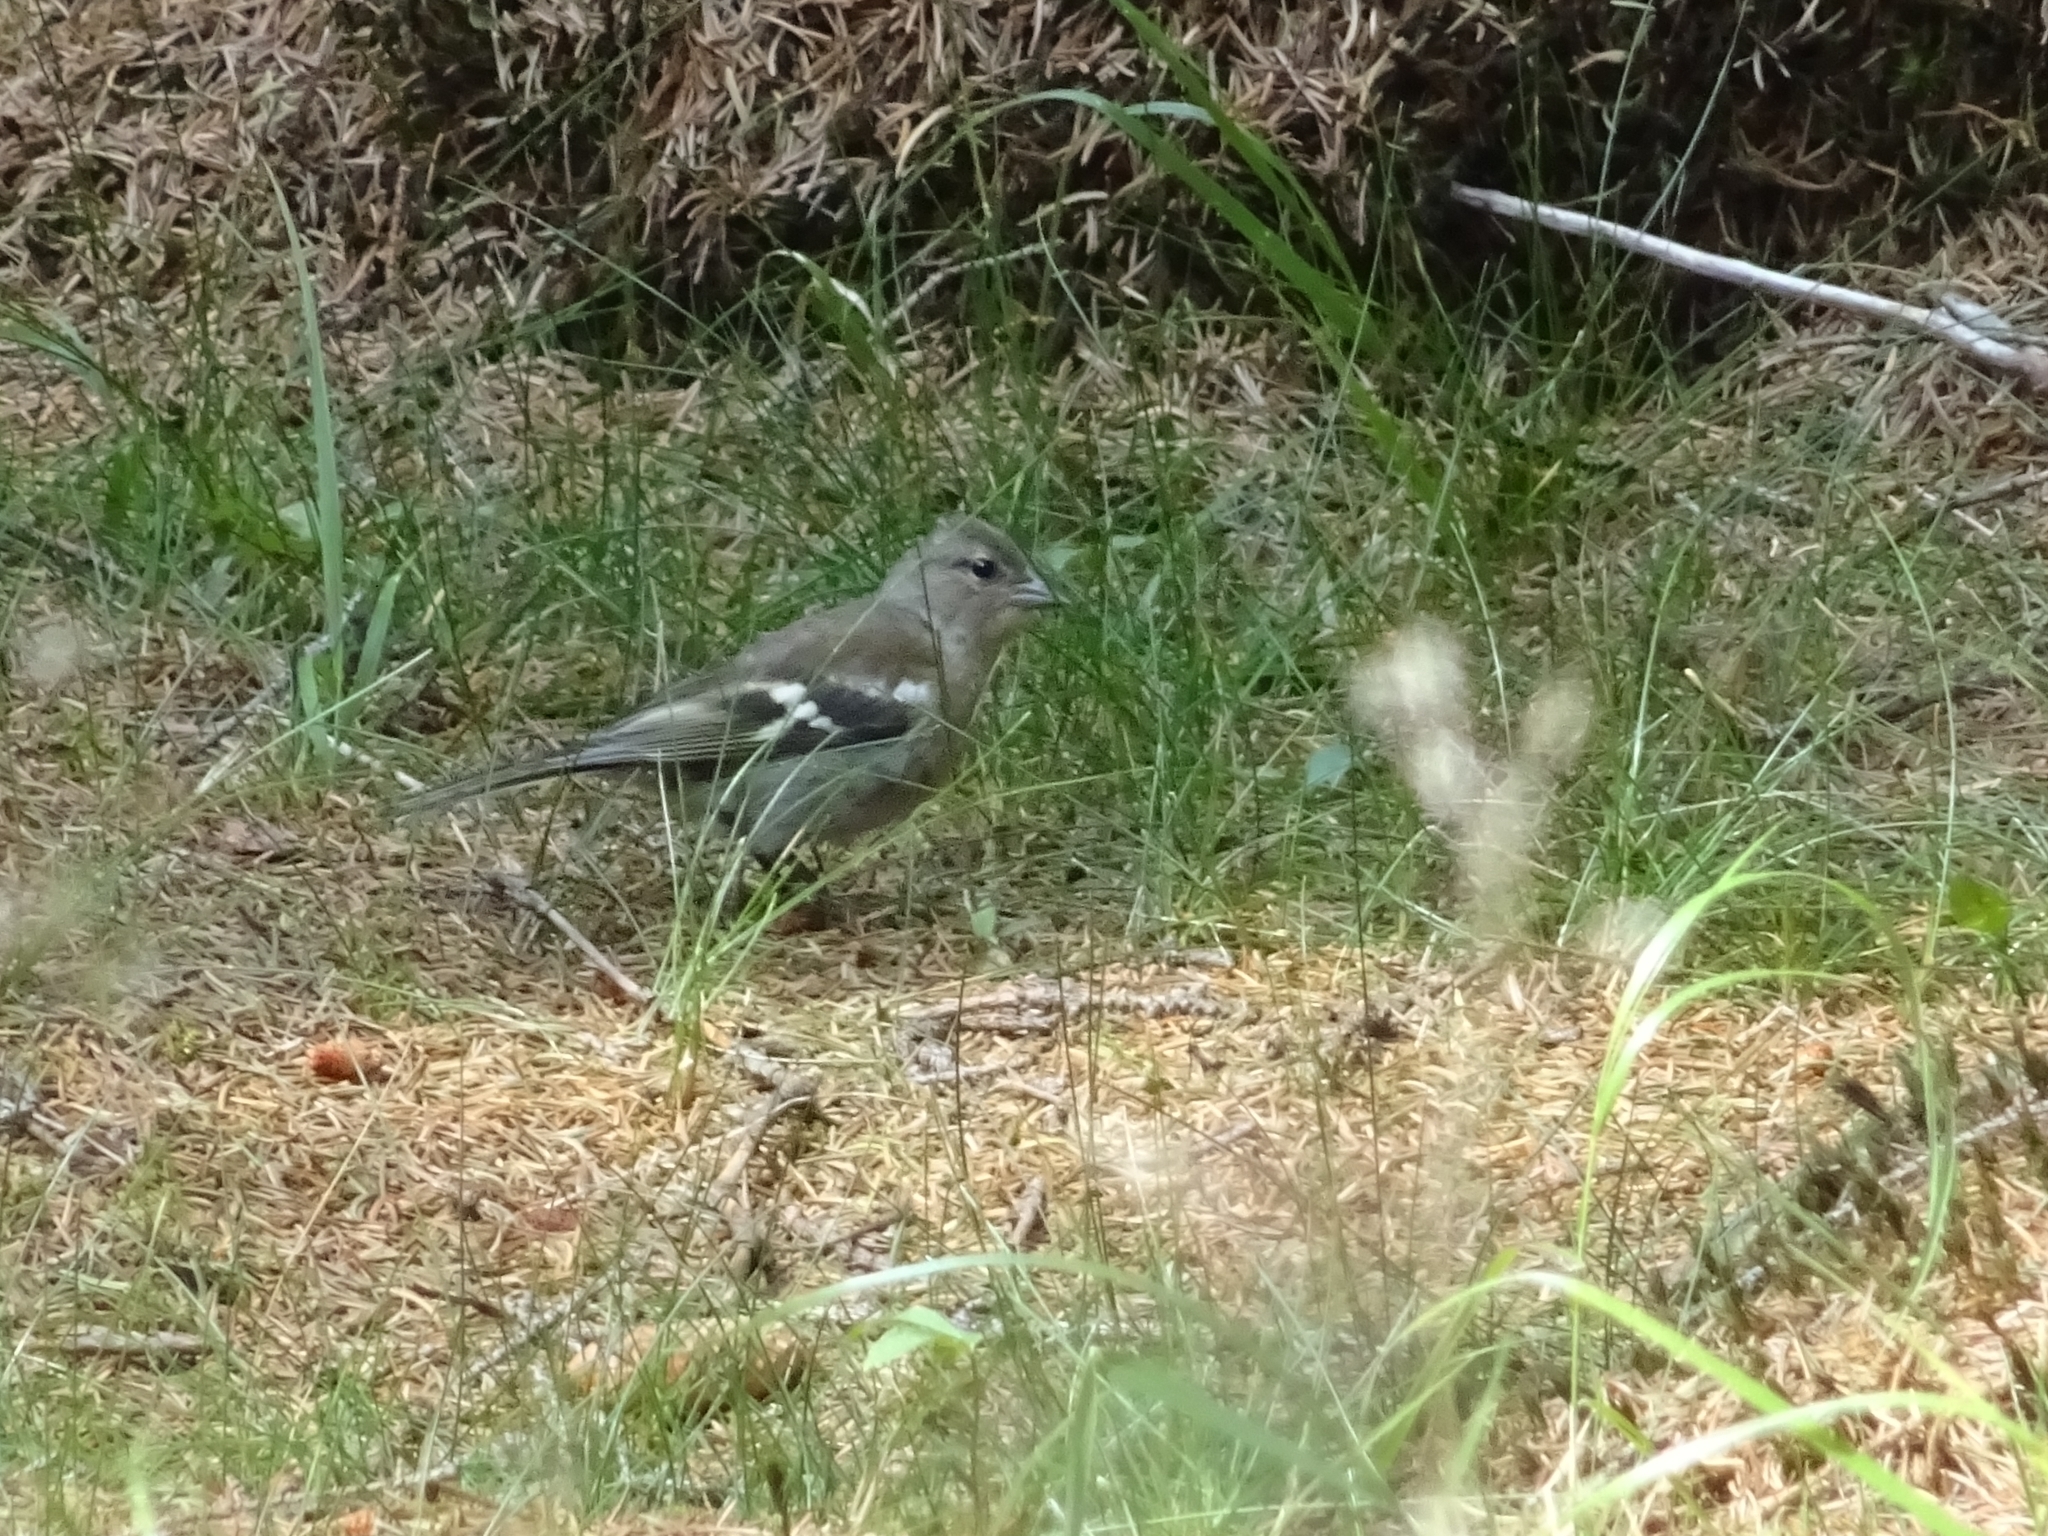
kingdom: Animalia
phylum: Chordata
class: Aves
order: Passeriformes
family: Fringillidae
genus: Fringilla
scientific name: Fringilla coelebs
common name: Common chaffinch
